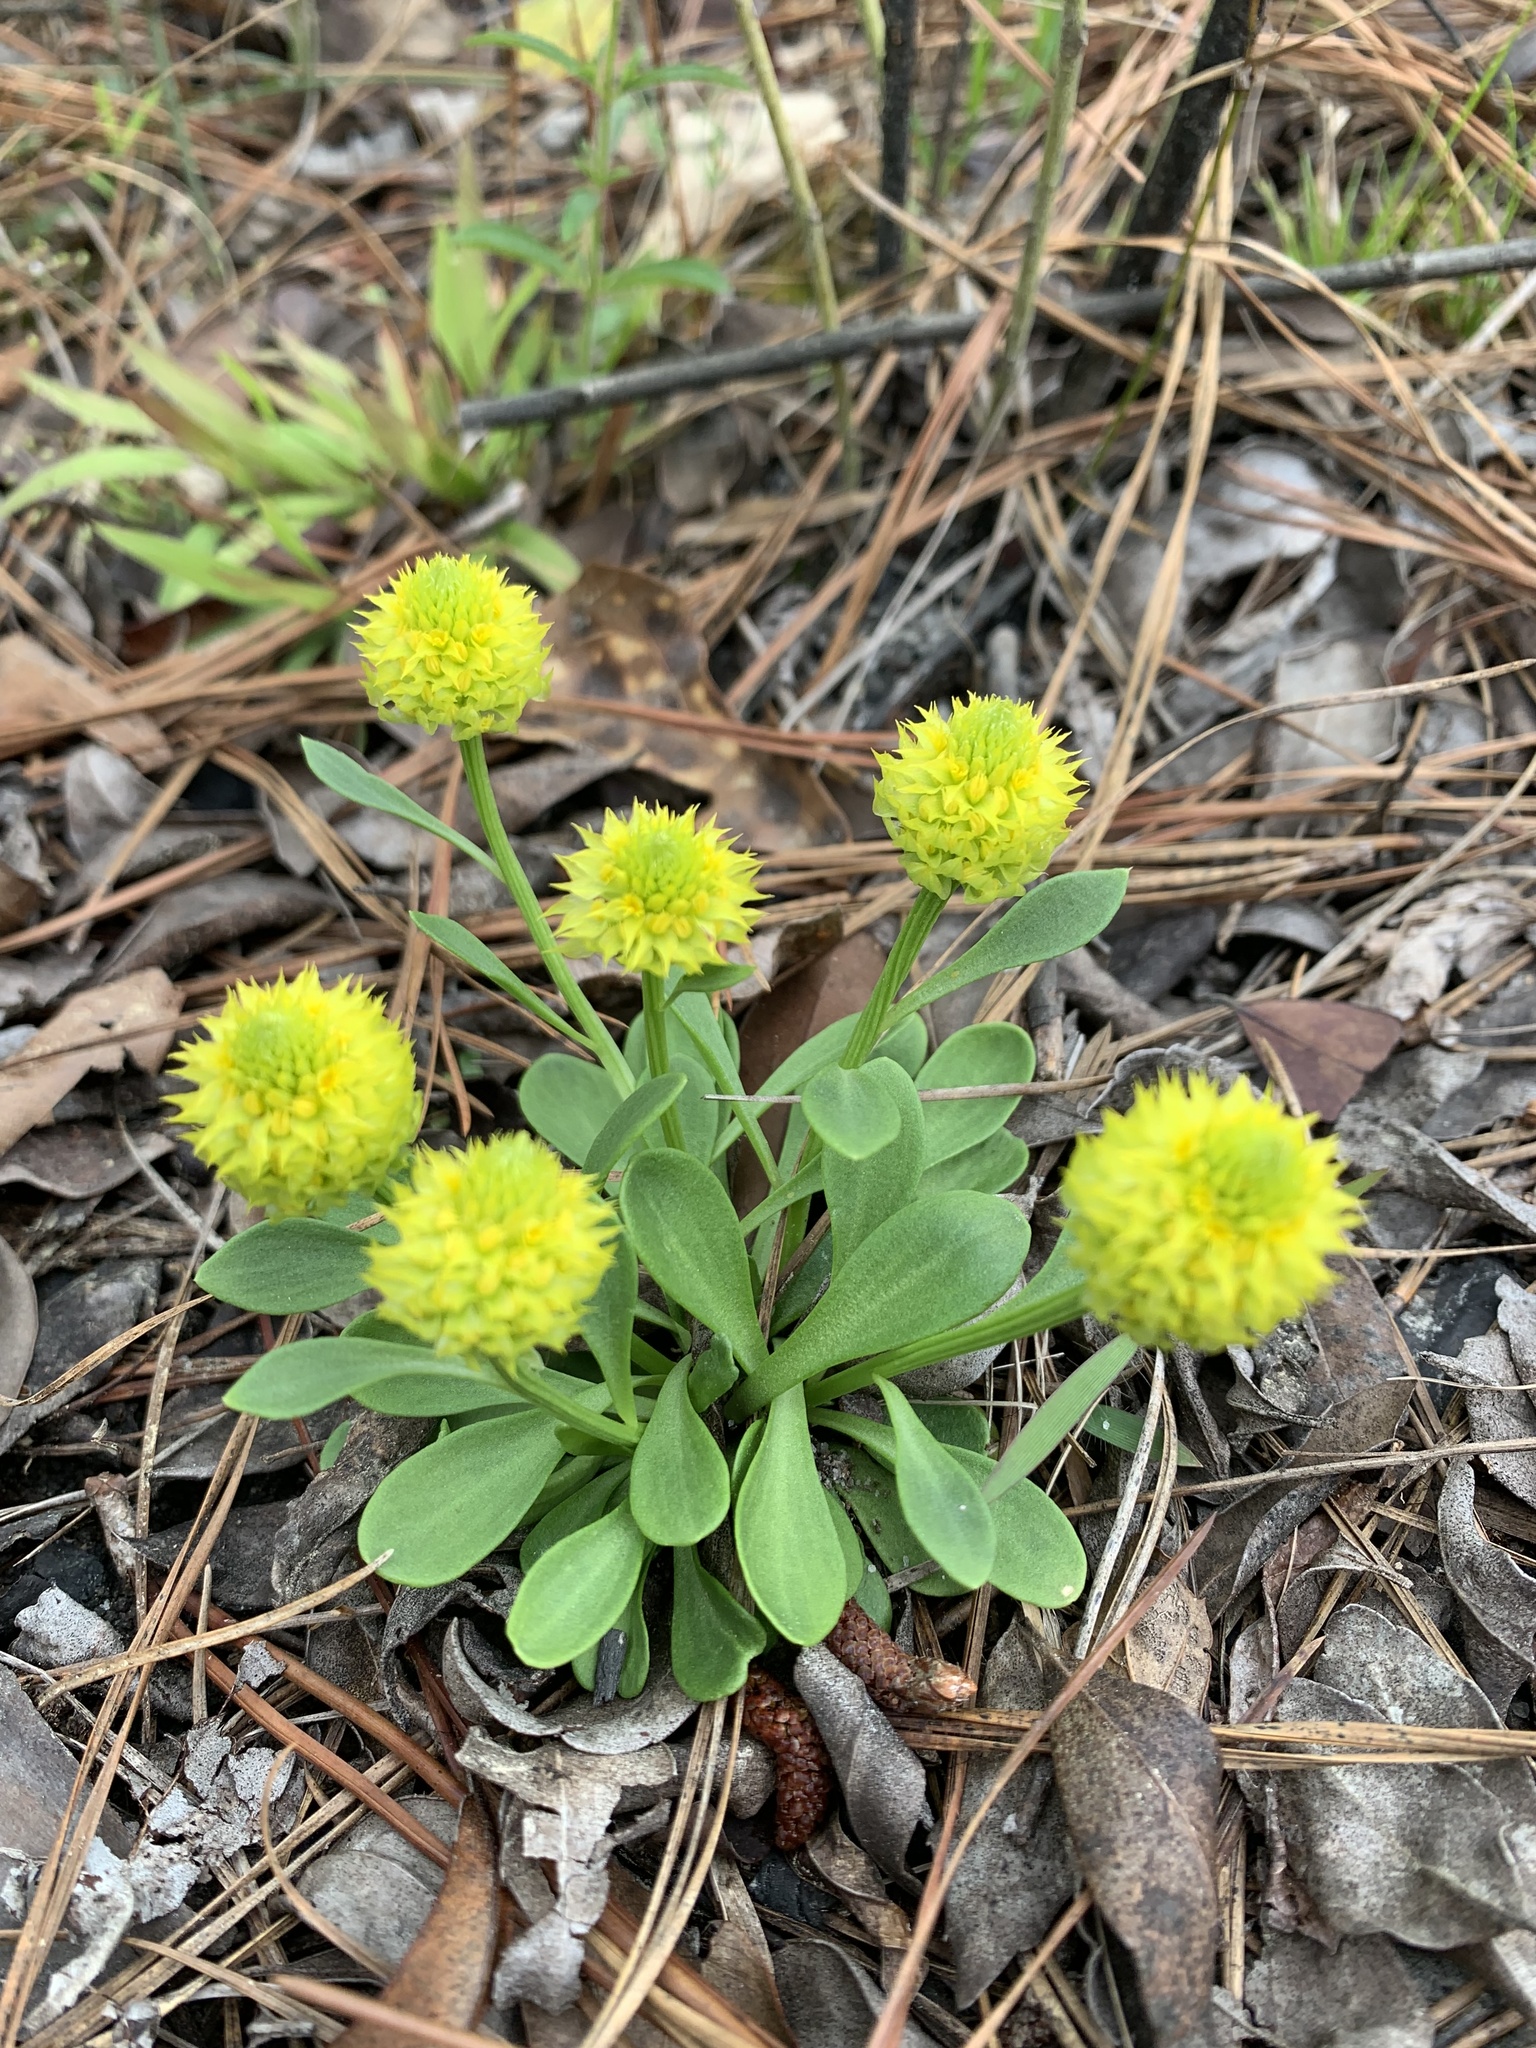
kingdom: Plantae
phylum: Tracheophyta
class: Magnoliopsida
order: Fabales
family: Polygalaceae
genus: Polygala
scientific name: Polygala nana
